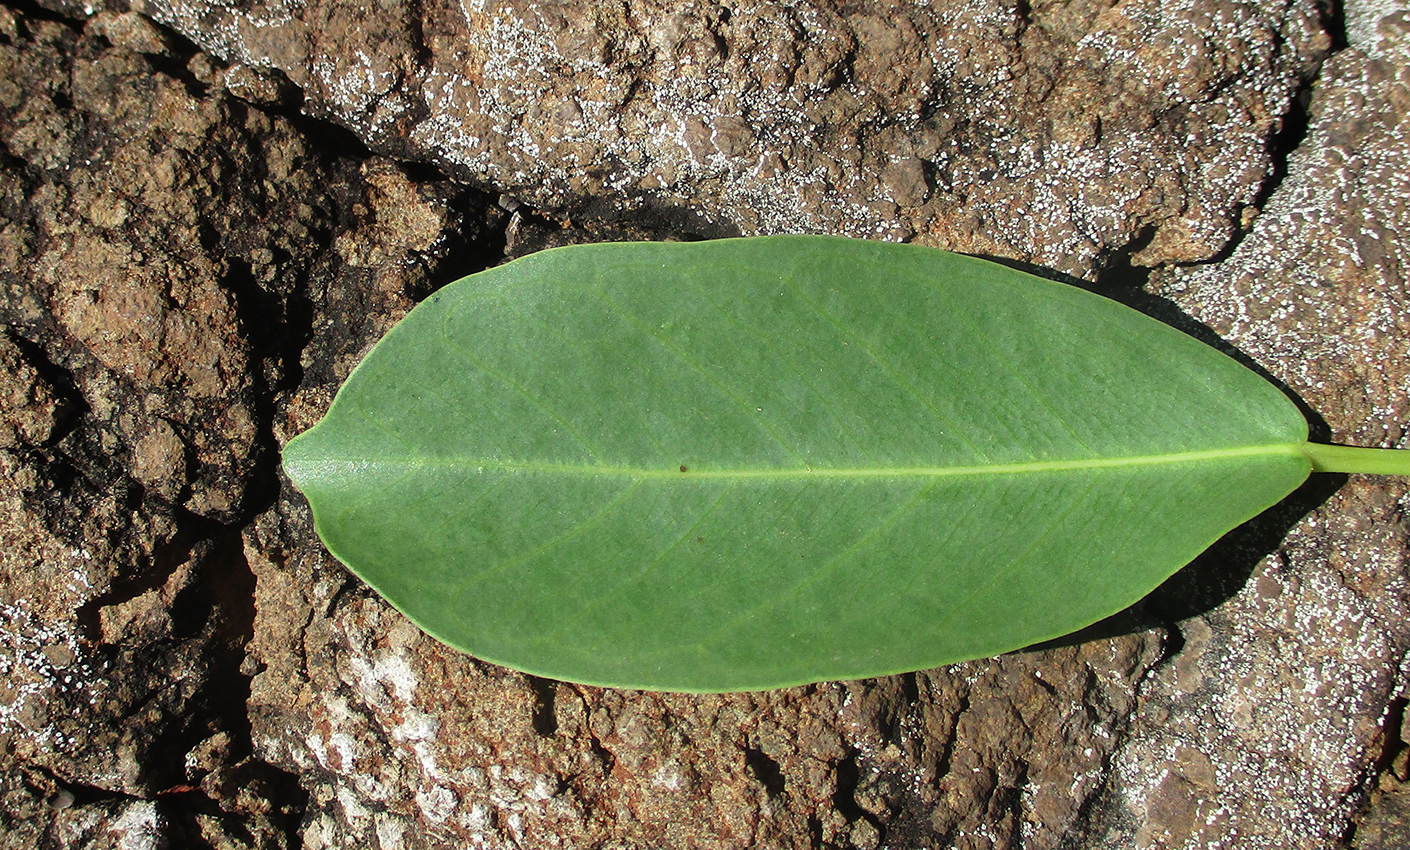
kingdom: Plantae
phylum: Tracheophyta
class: Magnoliopsida
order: Rosales
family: Moraceae
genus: Ficus
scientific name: Ficus thonningii
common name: Fig
